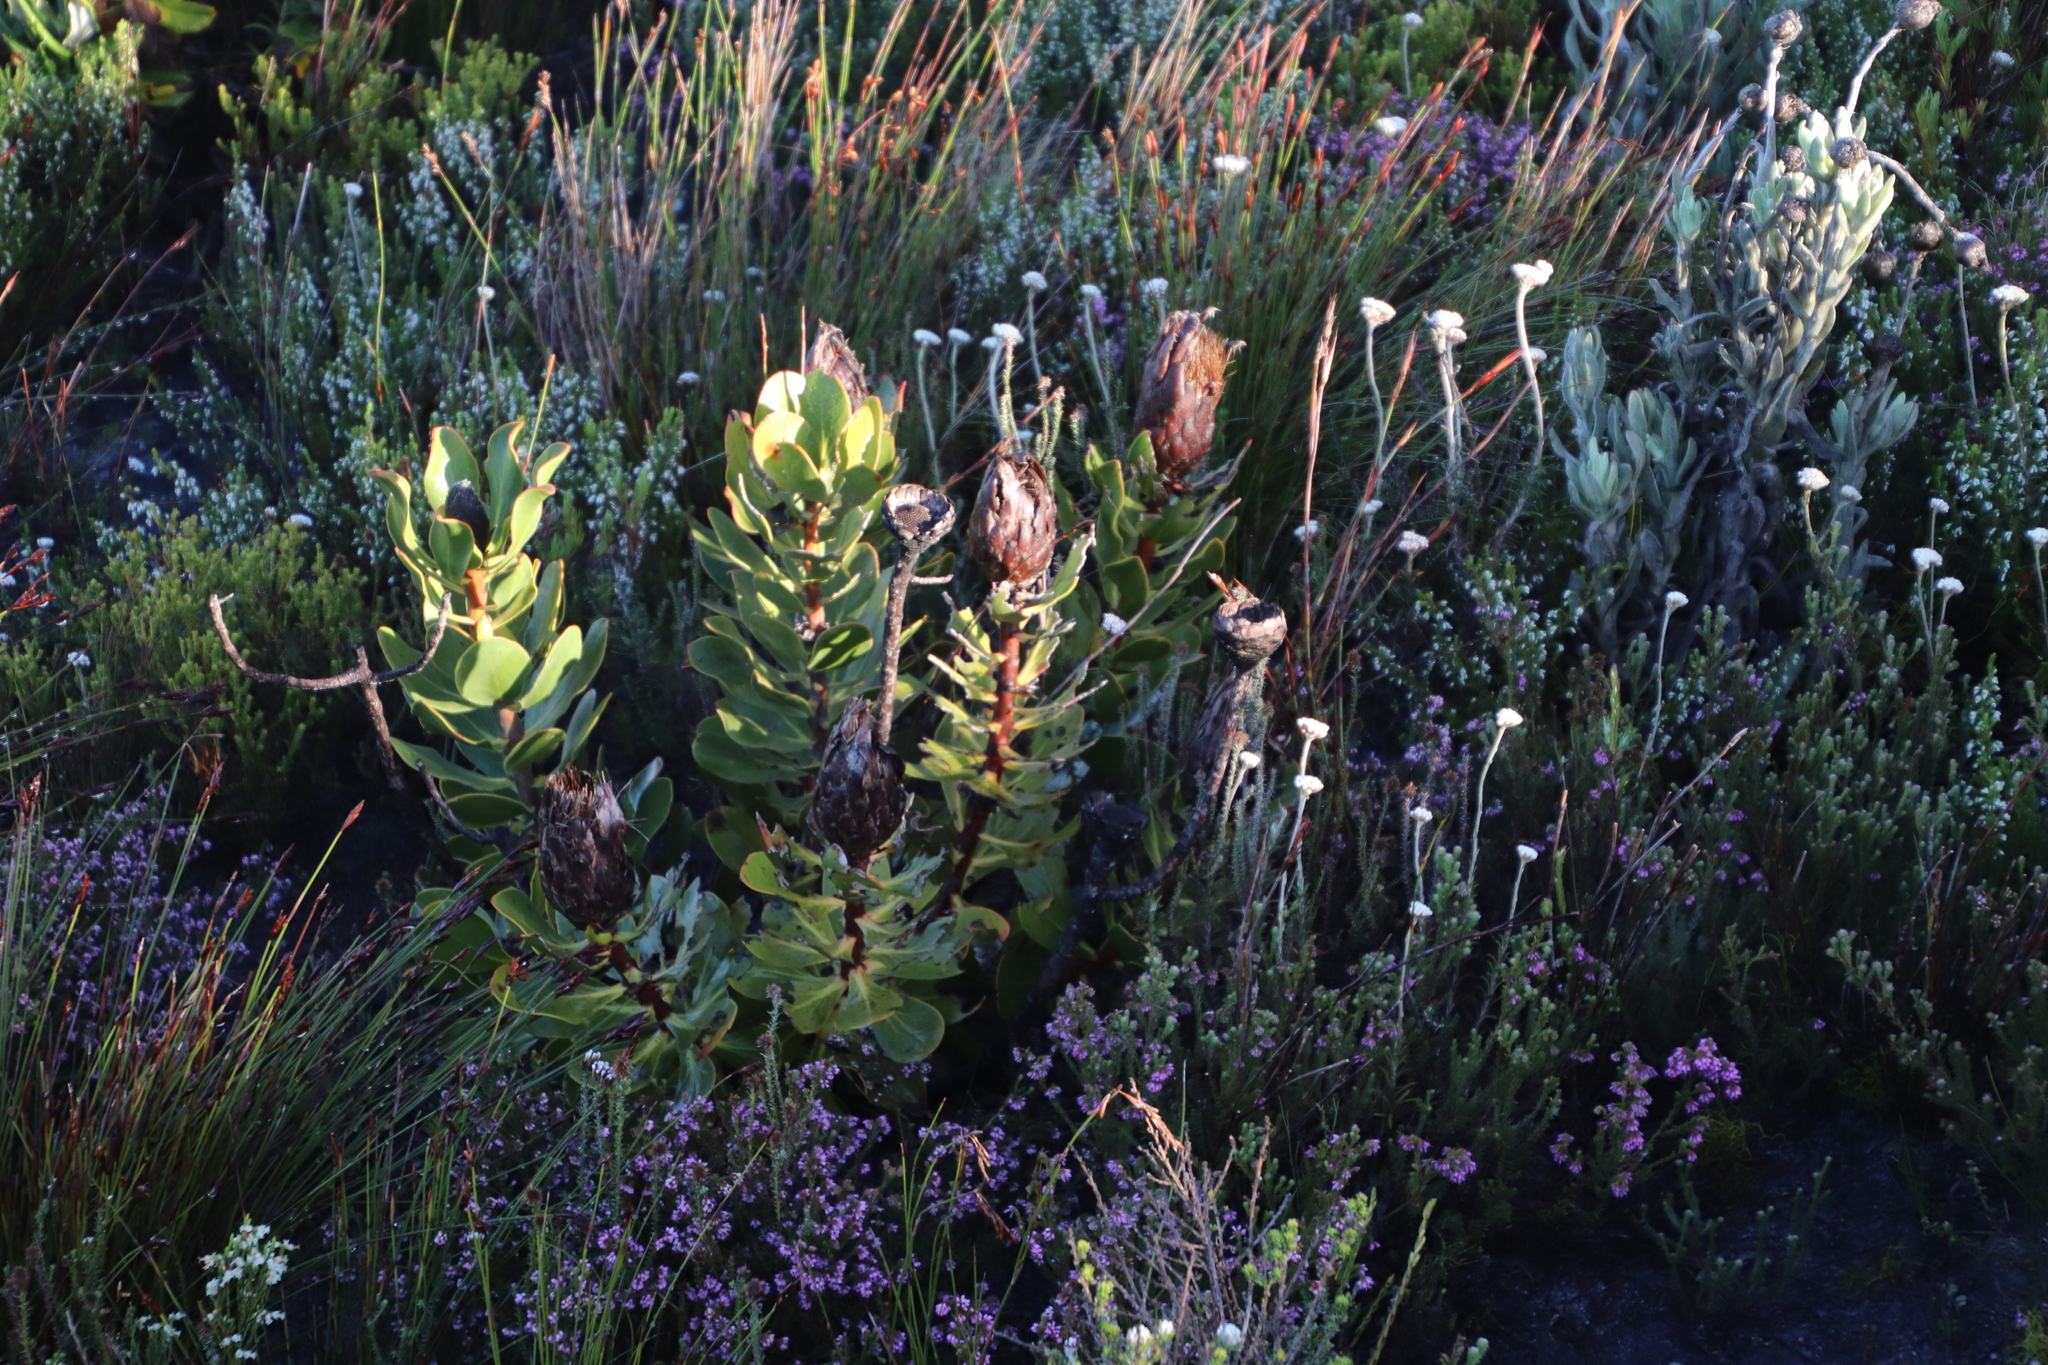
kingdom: Plantae
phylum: Tracheophyta
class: Magnoliopsida
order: Proteales
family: Proteaceae
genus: Protea
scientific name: Protea speciosa
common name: Brown-beard sugarbush
